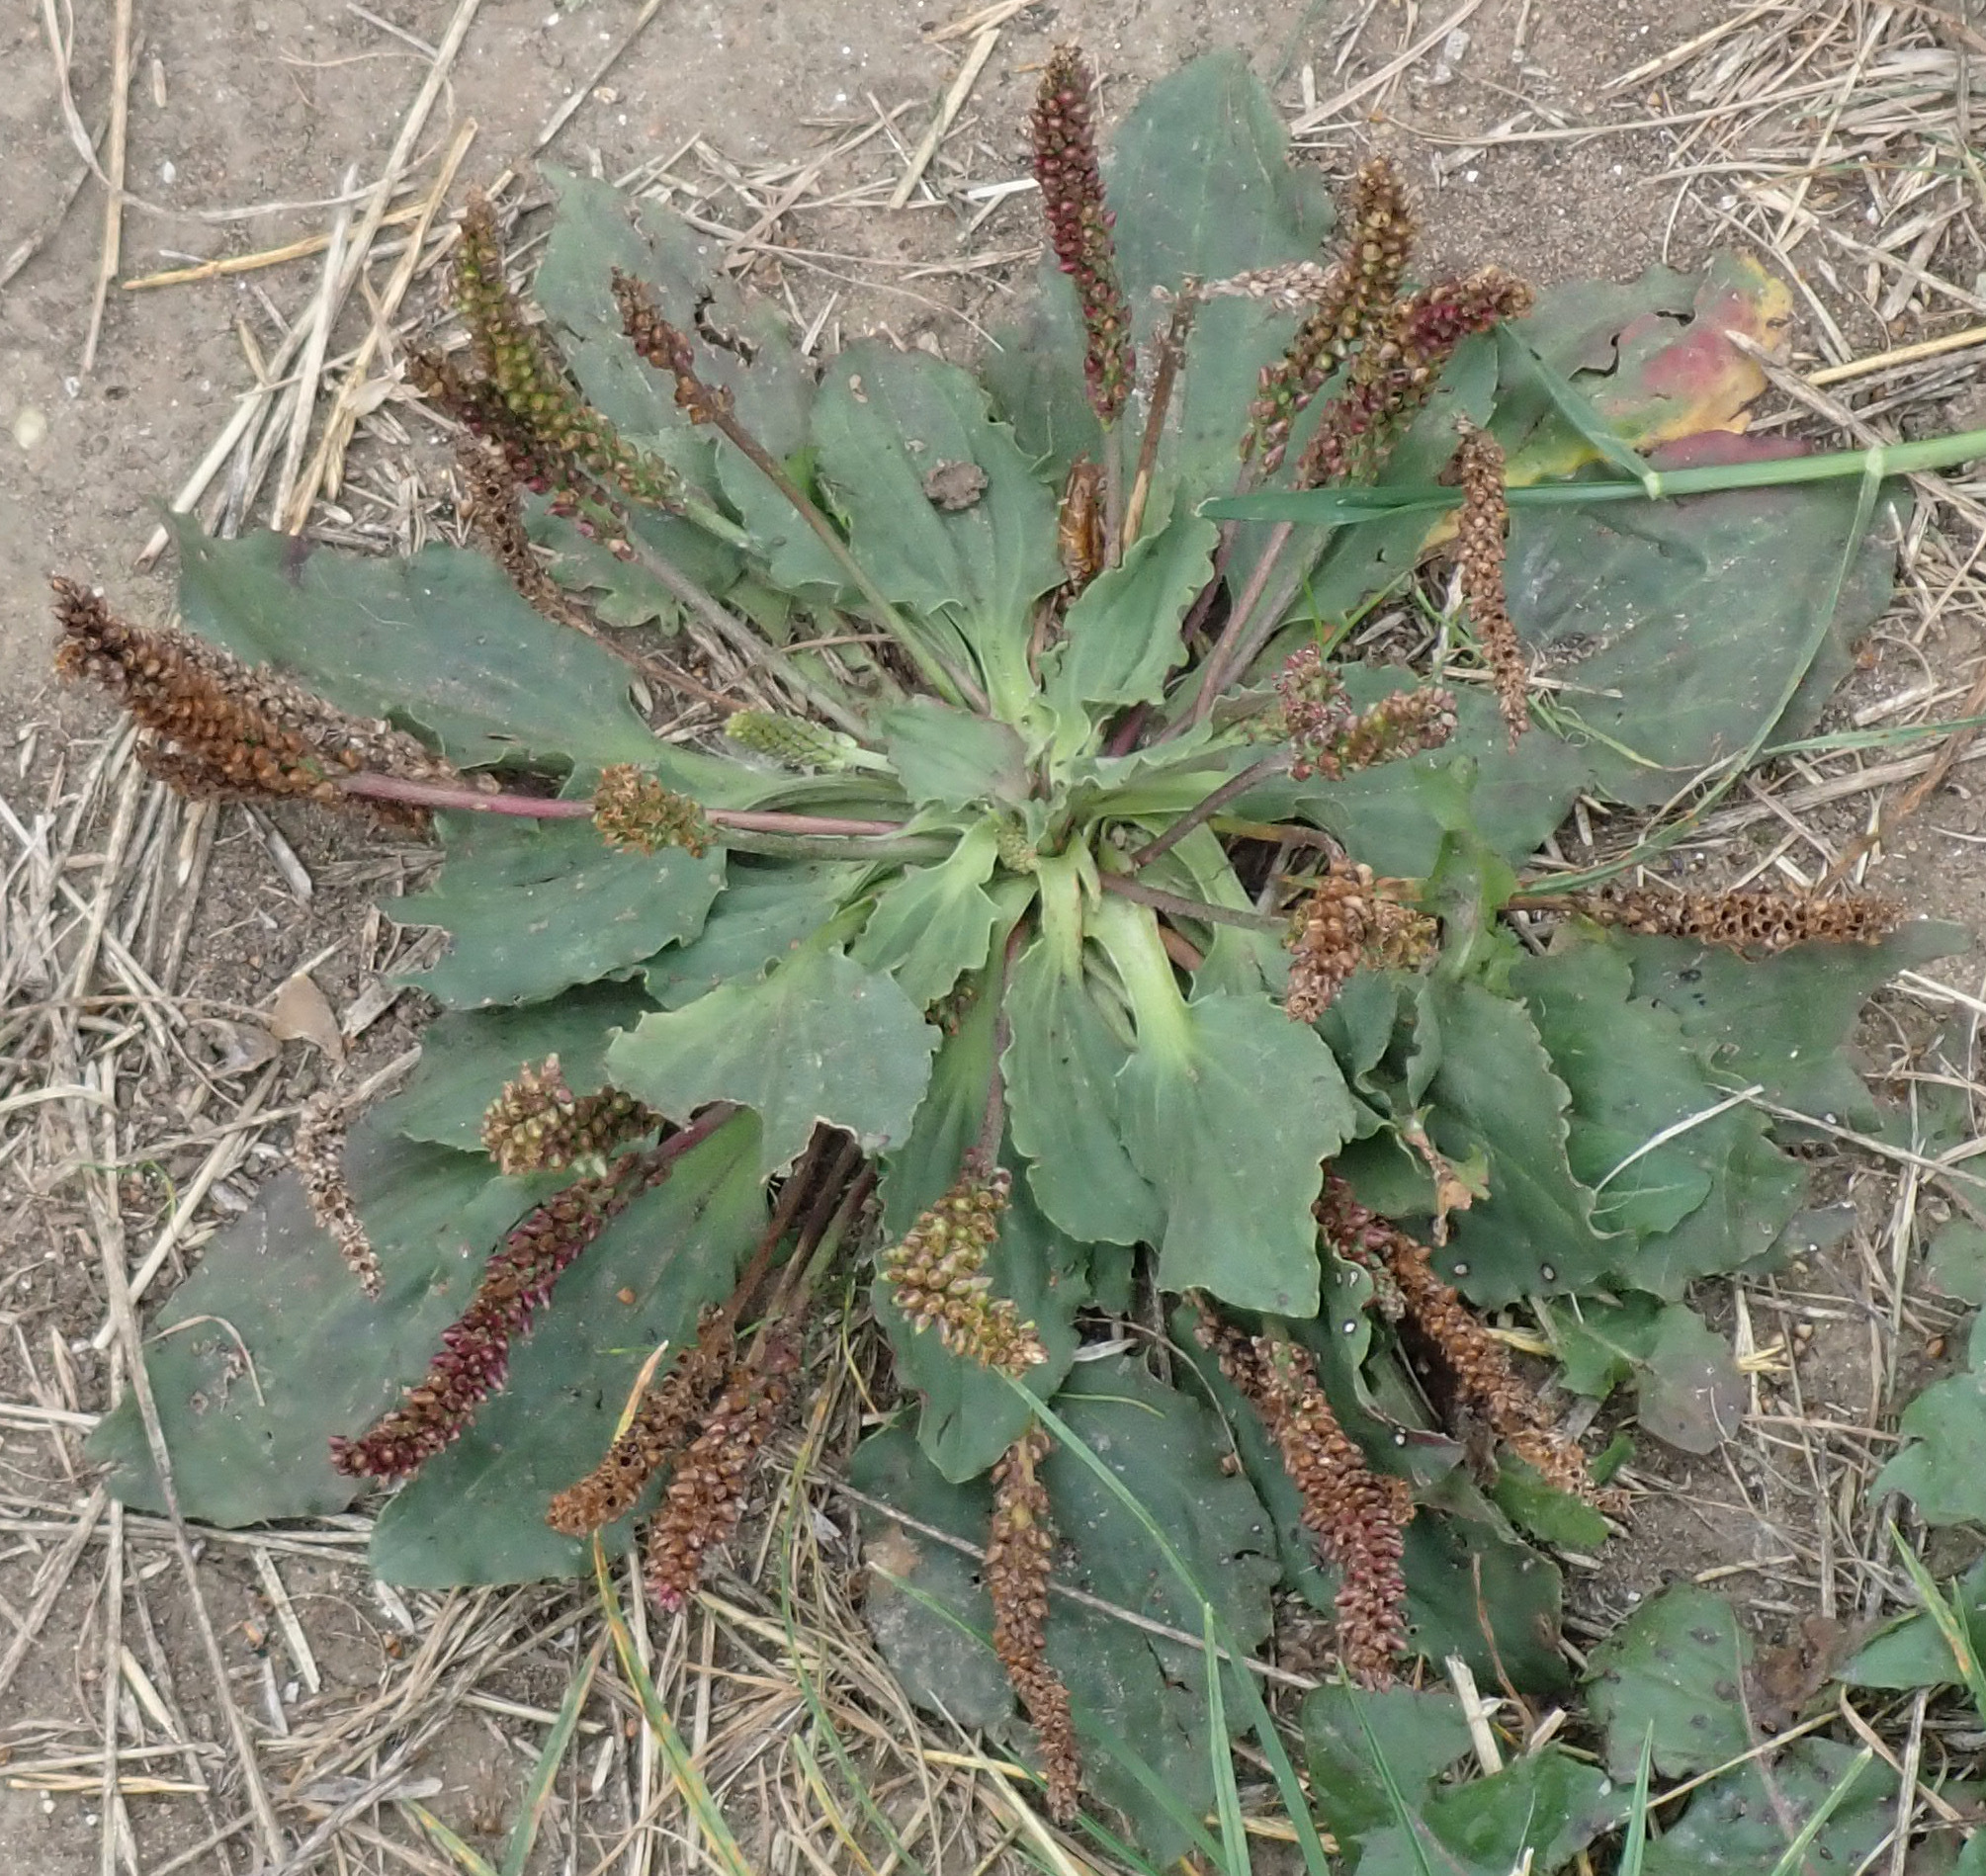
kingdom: Plantae
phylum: Tracheophyta
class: Magnoliopsida
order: Lamiales
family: Plantaginaceae
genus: Plantago
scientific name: Plantago major
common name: Common plantain
